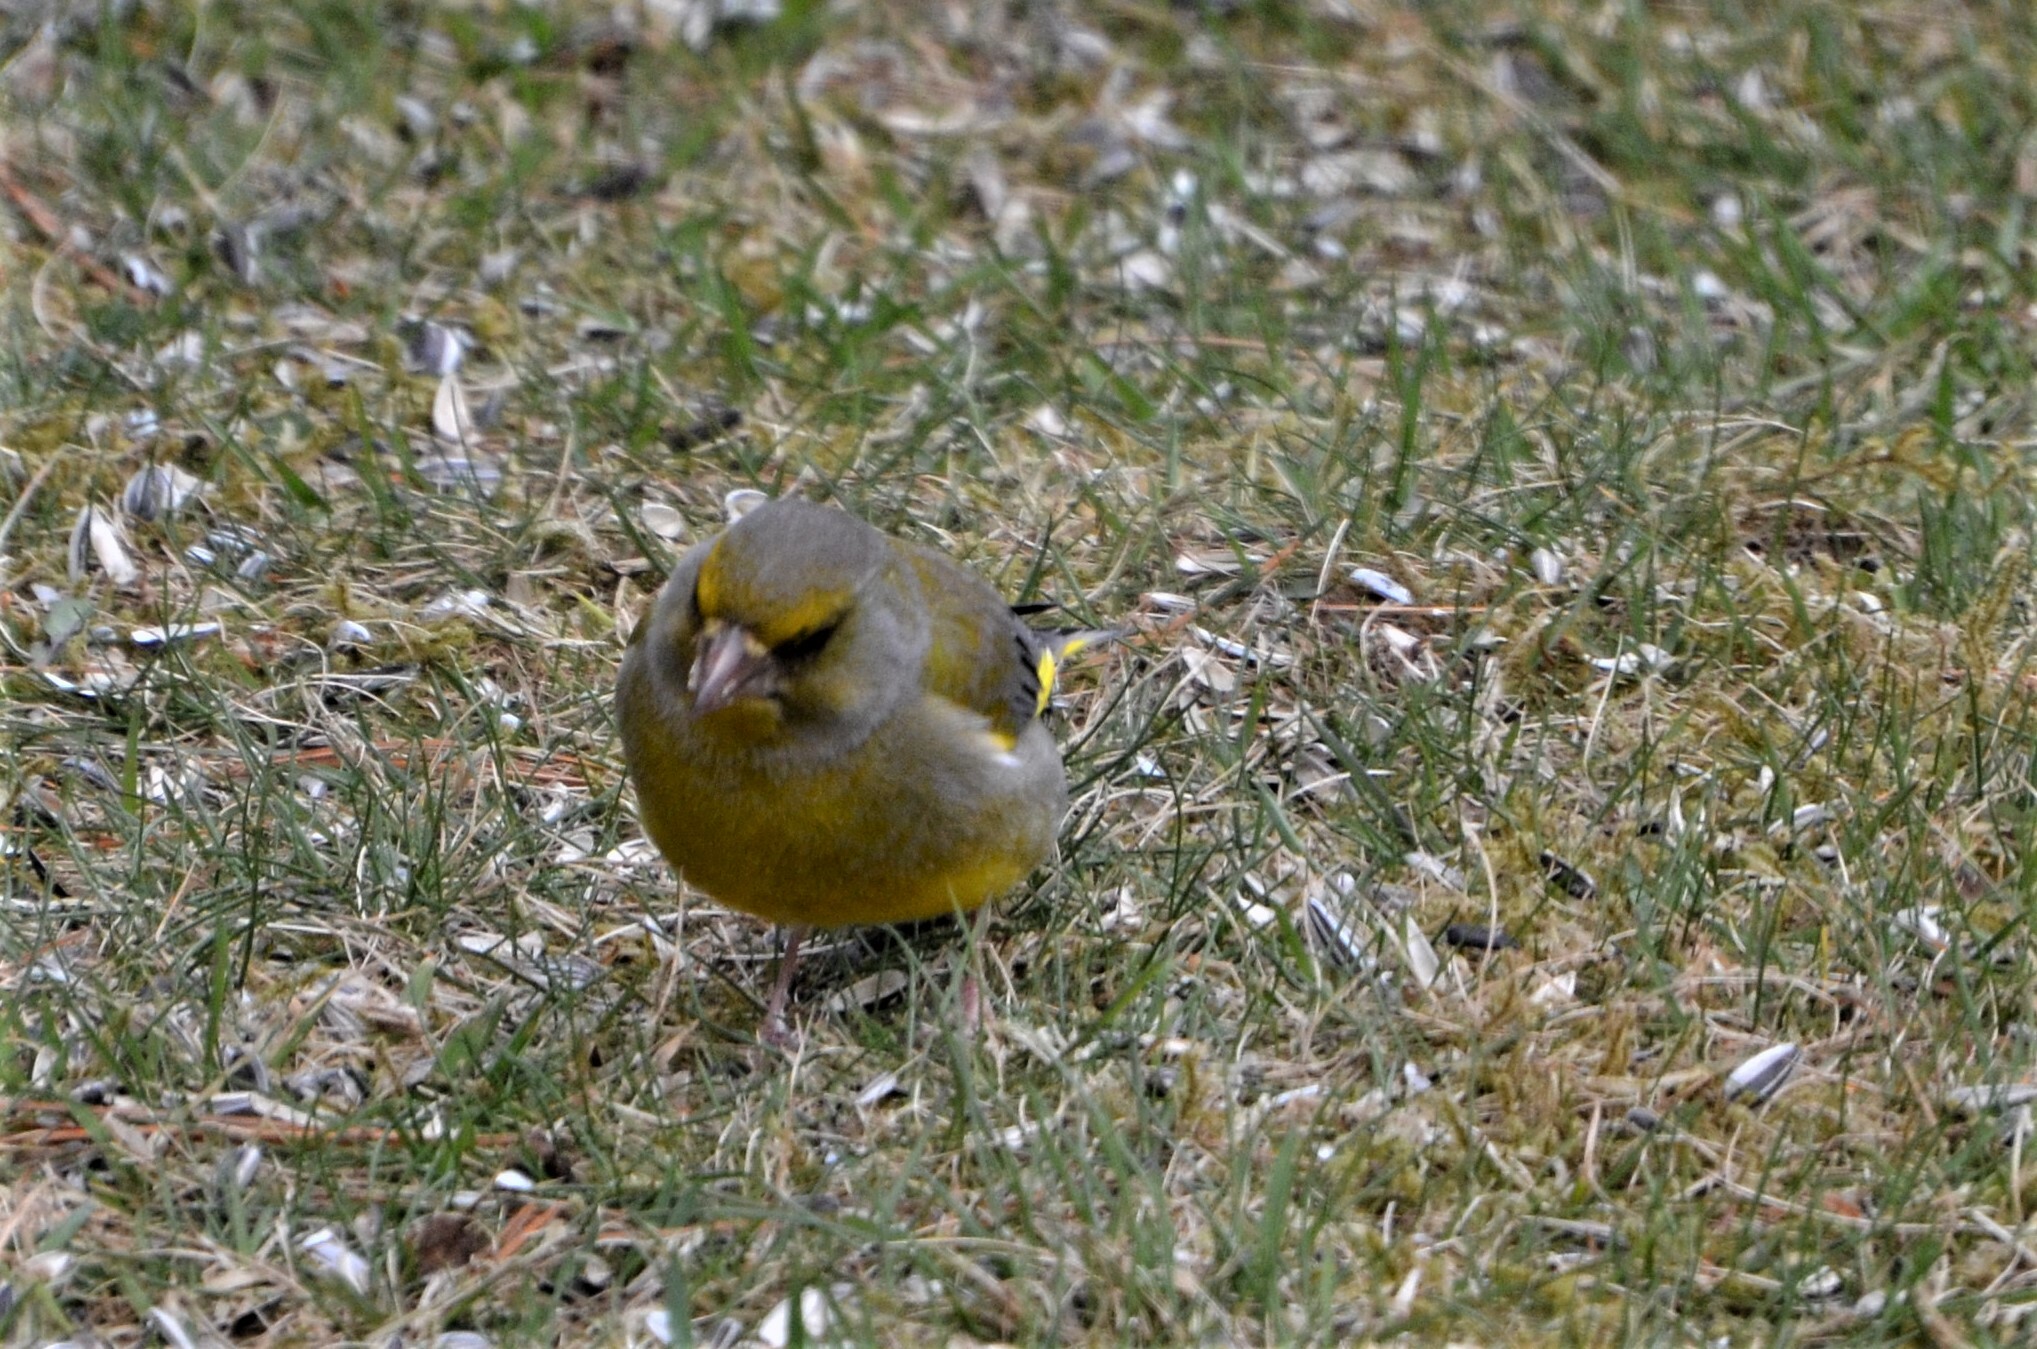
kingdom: Plantae
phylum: Tracheophyta
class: Liliopsida
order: Poales
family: Poaceae
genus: Chloris
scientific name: Chloris chloris
